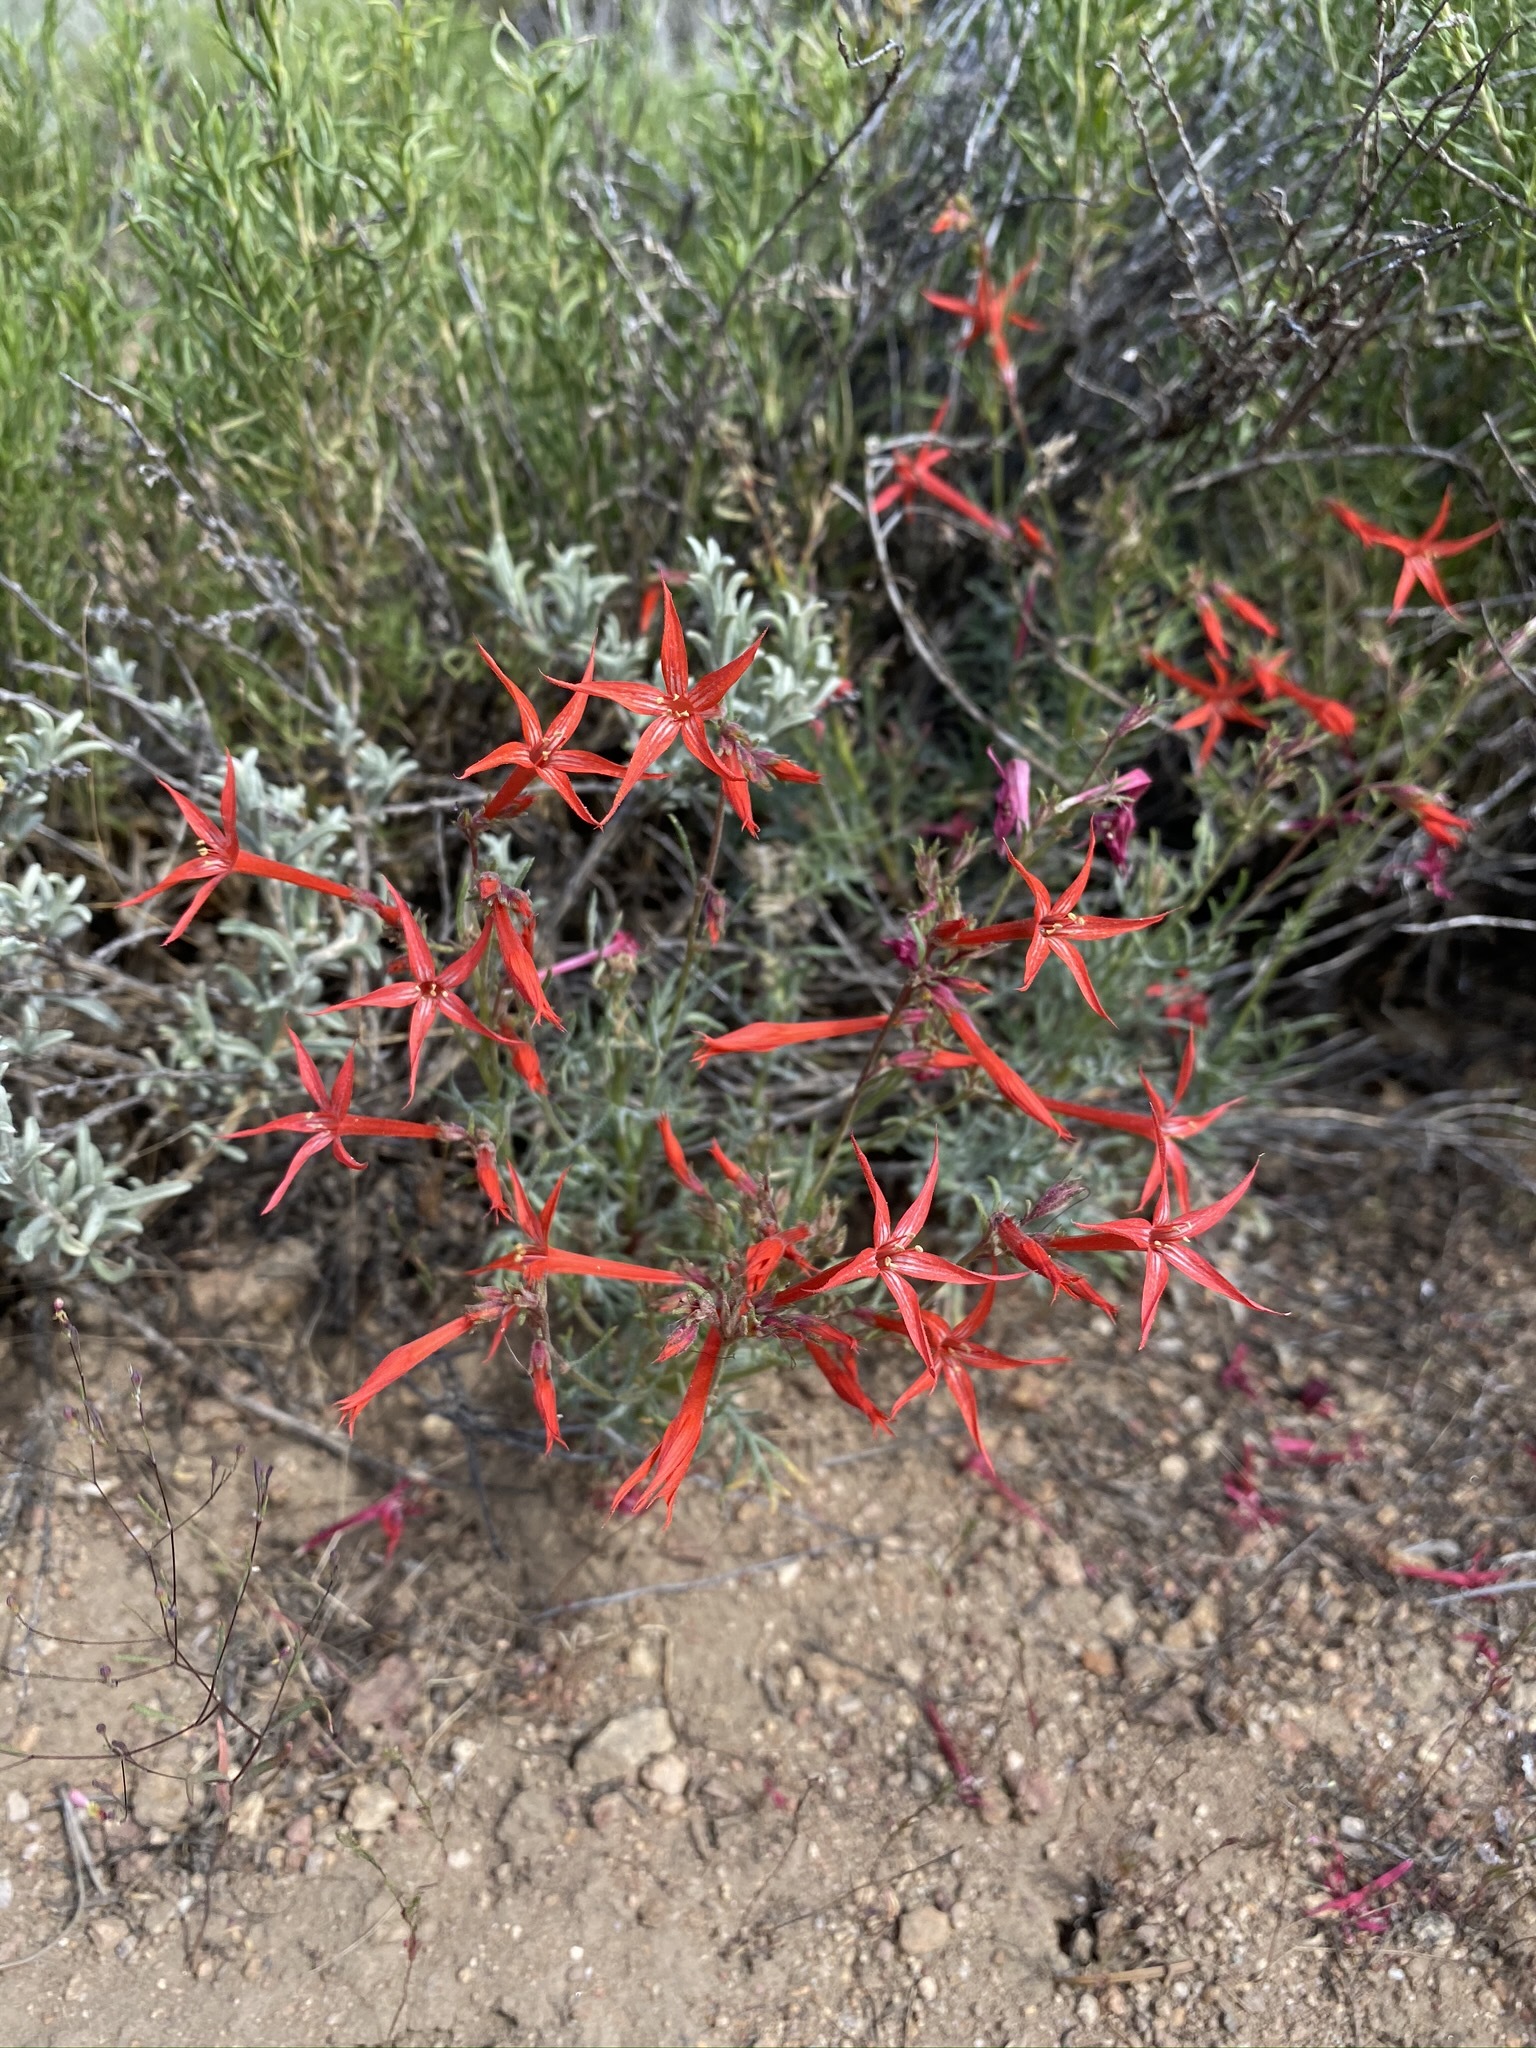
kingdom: Plantae
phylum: Tracheophyta
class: Magnoliopsida
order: Ericales
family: Polemoniaceae
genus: Ipomopsis
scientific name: Ipomopsis aggregata
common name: Scarlet gilia
